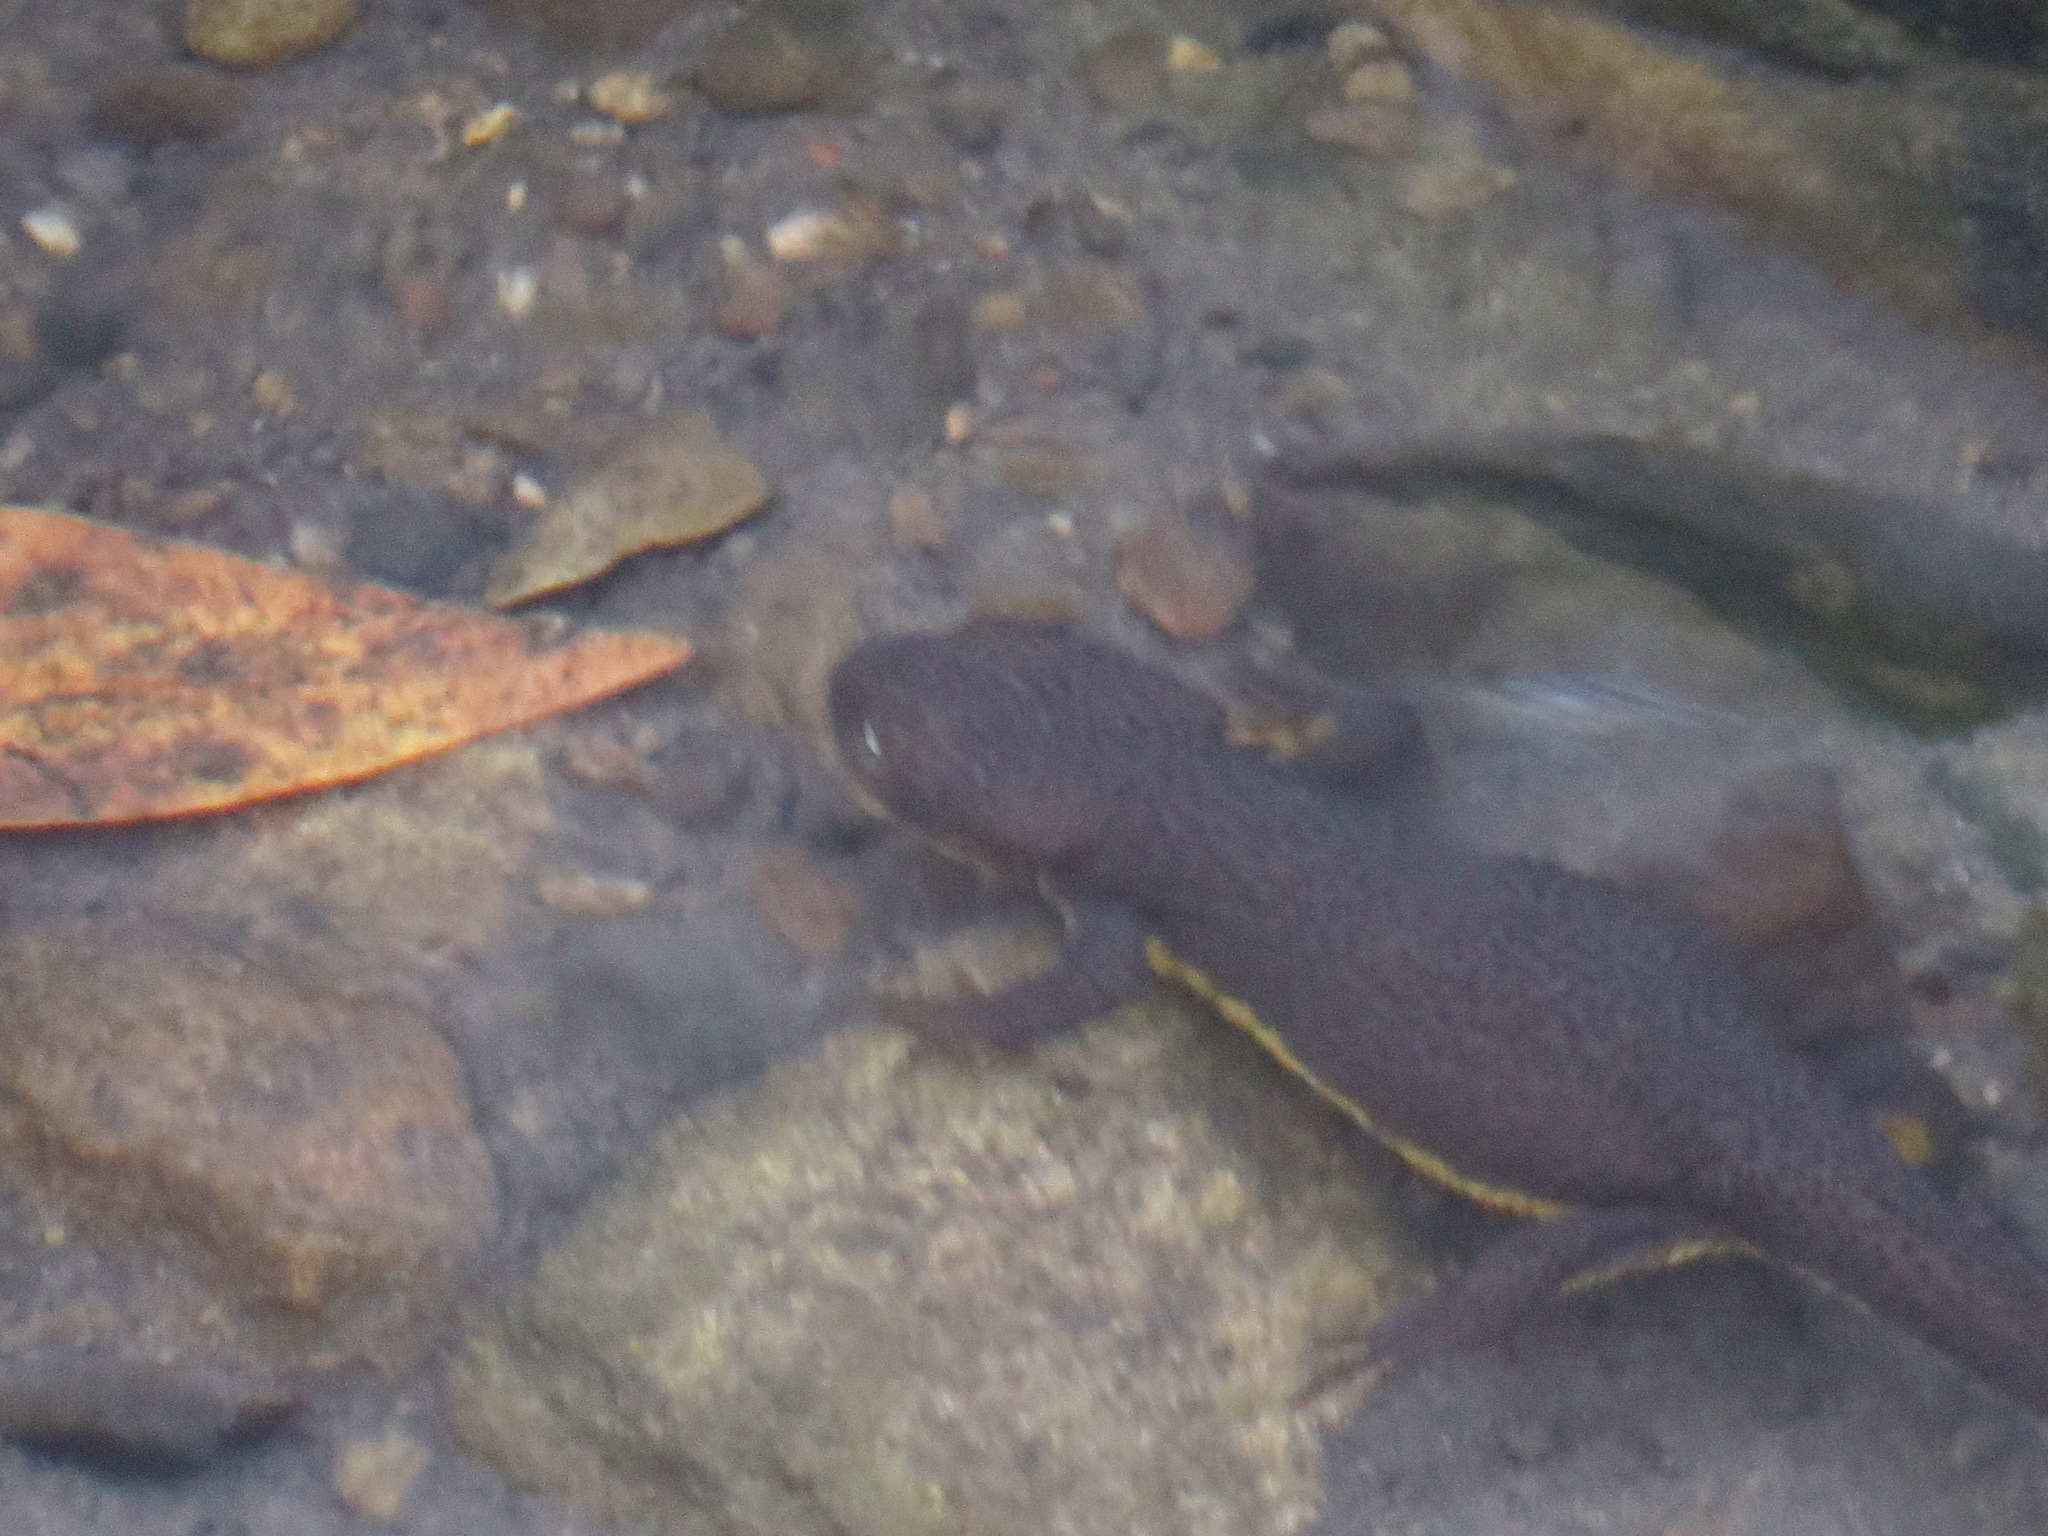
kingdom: Animalia
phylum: Chordata
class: Amphibia
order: Caudata
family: Salamandridae
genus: Taricha
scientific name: Taricha granulosa
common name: Roughskin newt
